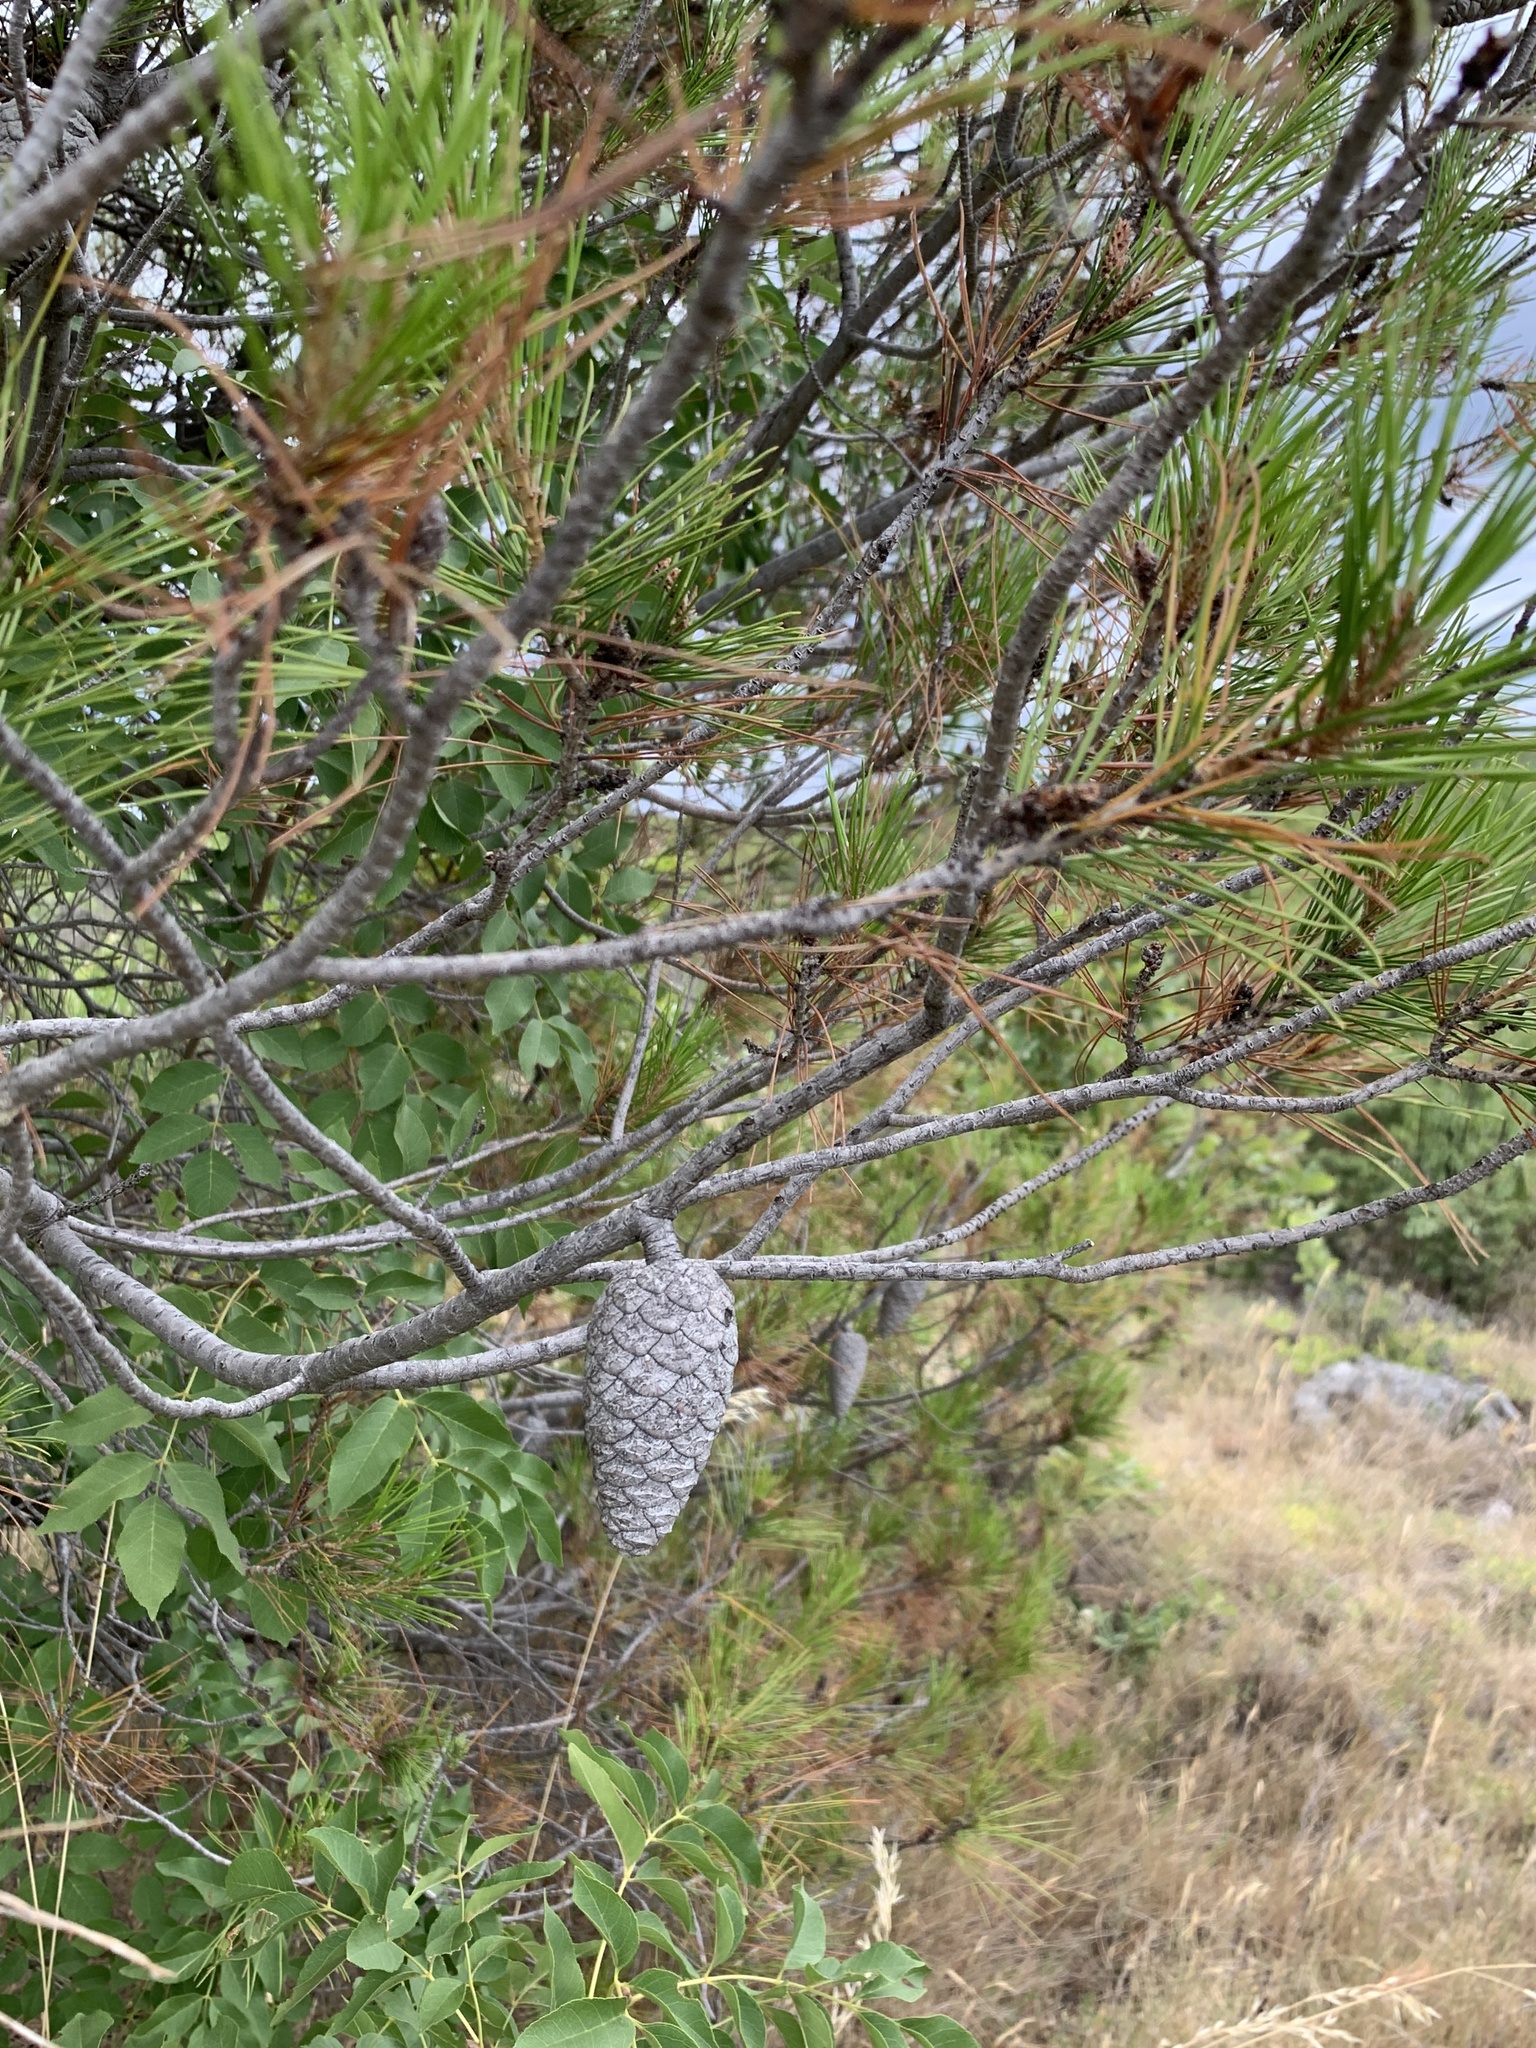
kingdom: Plantae
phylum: Tracheophyta
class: Pinopsida
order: Pinales
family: Pinaceae
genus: Pinus
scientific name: Pinus halepensis
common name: Aleppo pine
